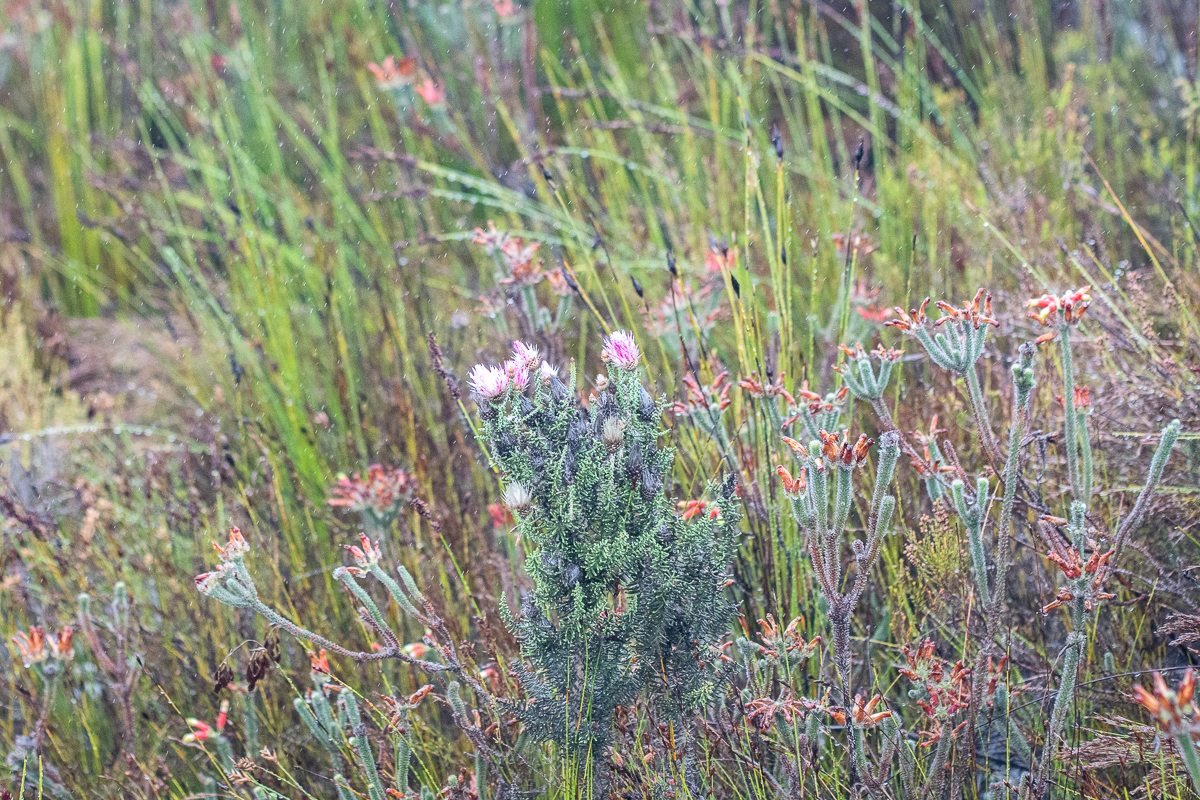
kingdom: Plantae
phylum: Tracheophyta
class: Magnoliopsida
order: Asterales
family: Asteraceae
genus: Phaenocoma
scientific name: Phaenocoma prolifera
